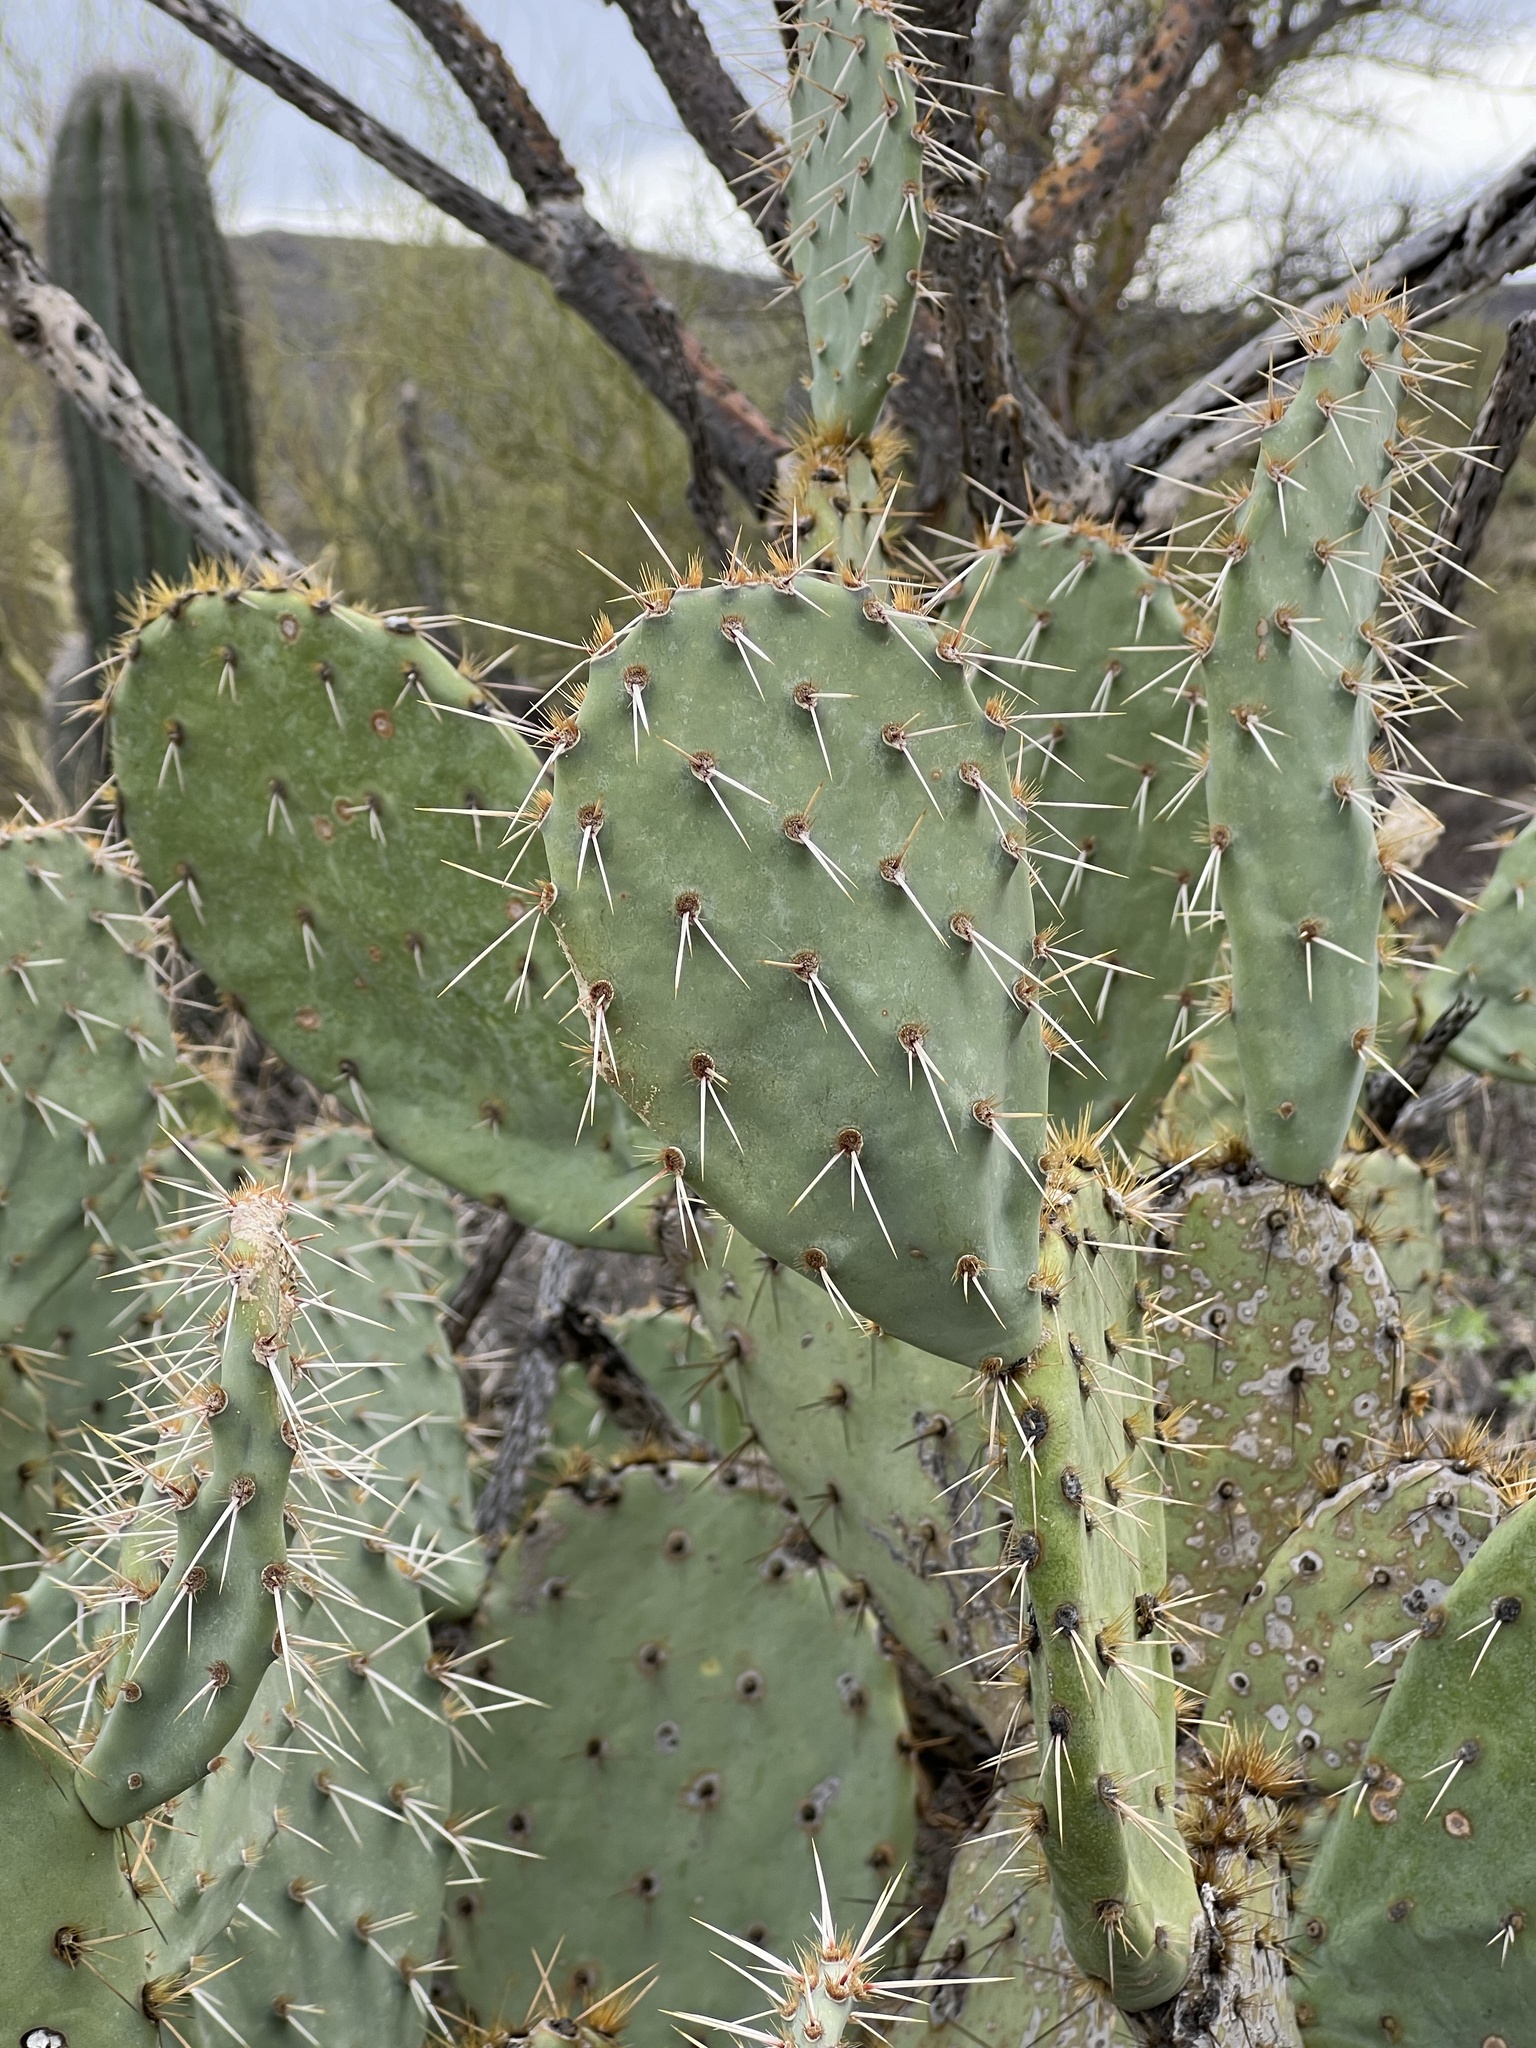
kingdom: Plantae
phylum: Tracheophyta
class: Magnoliopsida
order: Caryophyllales
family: Cactaceae
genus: Opuntia
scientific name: Opuntia engelmannii
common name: Cactus-apple
